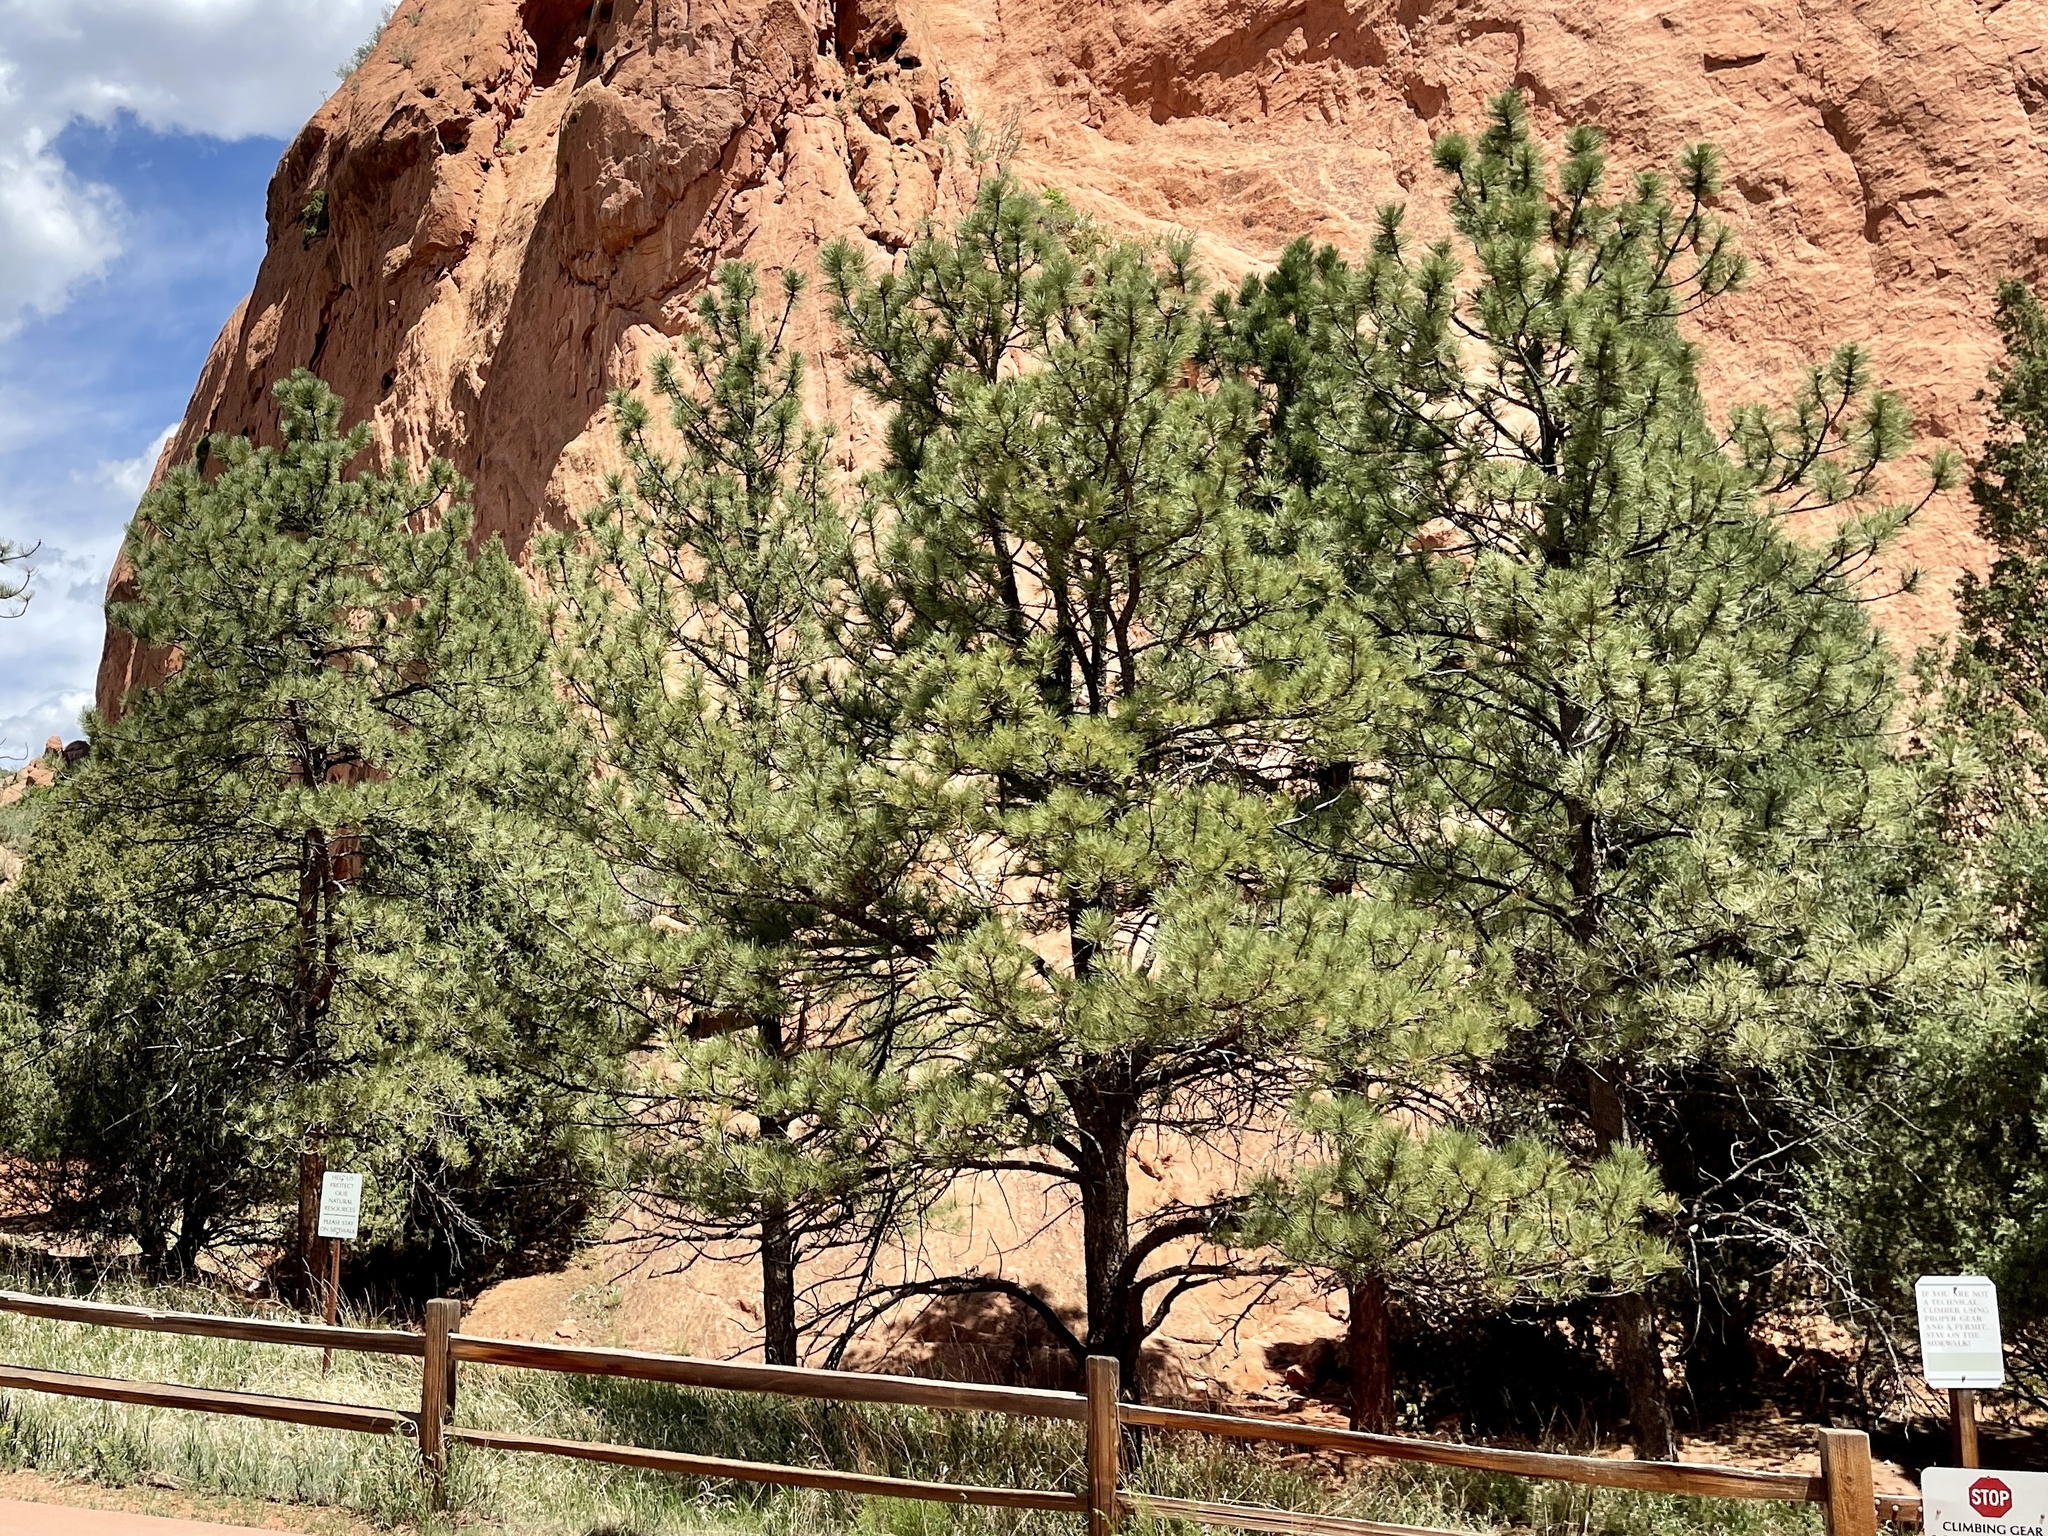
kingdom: Plantae
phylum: Tracheophyta
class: Pinopsida
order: Pinales
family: Pinaceae
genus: Pinus
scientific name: Pinus ponderosa
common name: Western yellow-pine
